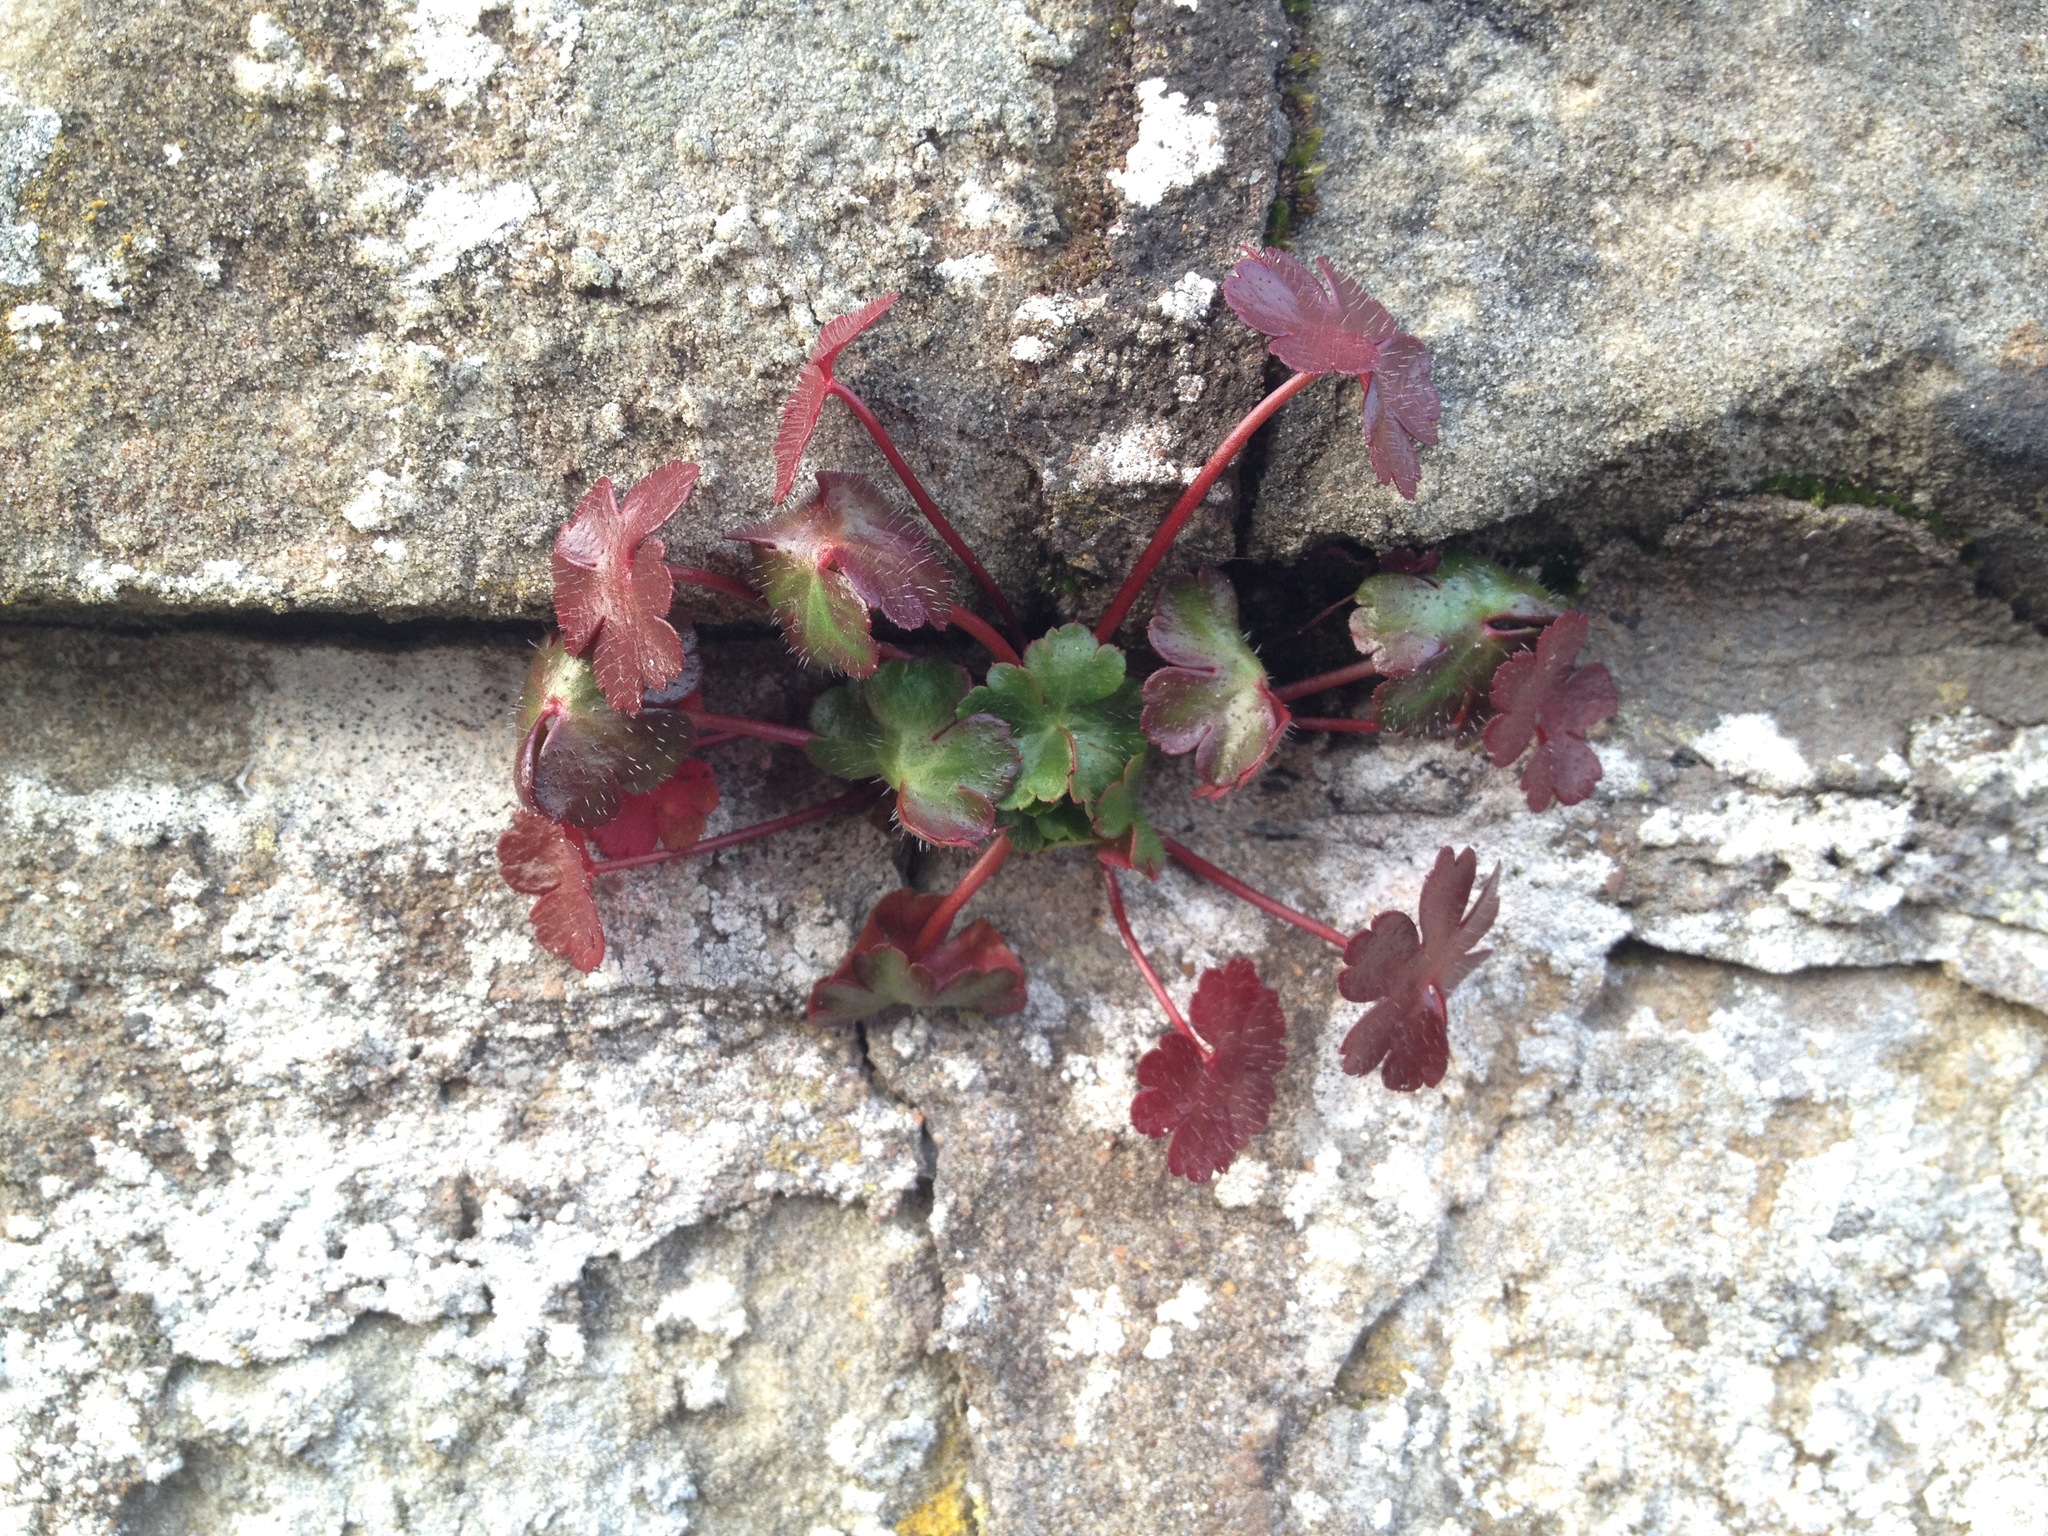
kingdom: Plantae
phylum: Tracheophyta
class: Magnoliopsida
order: Geraniales
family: Geraniaceae
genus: Geranium
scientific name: Geranium robertianum
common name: Herb-robert
